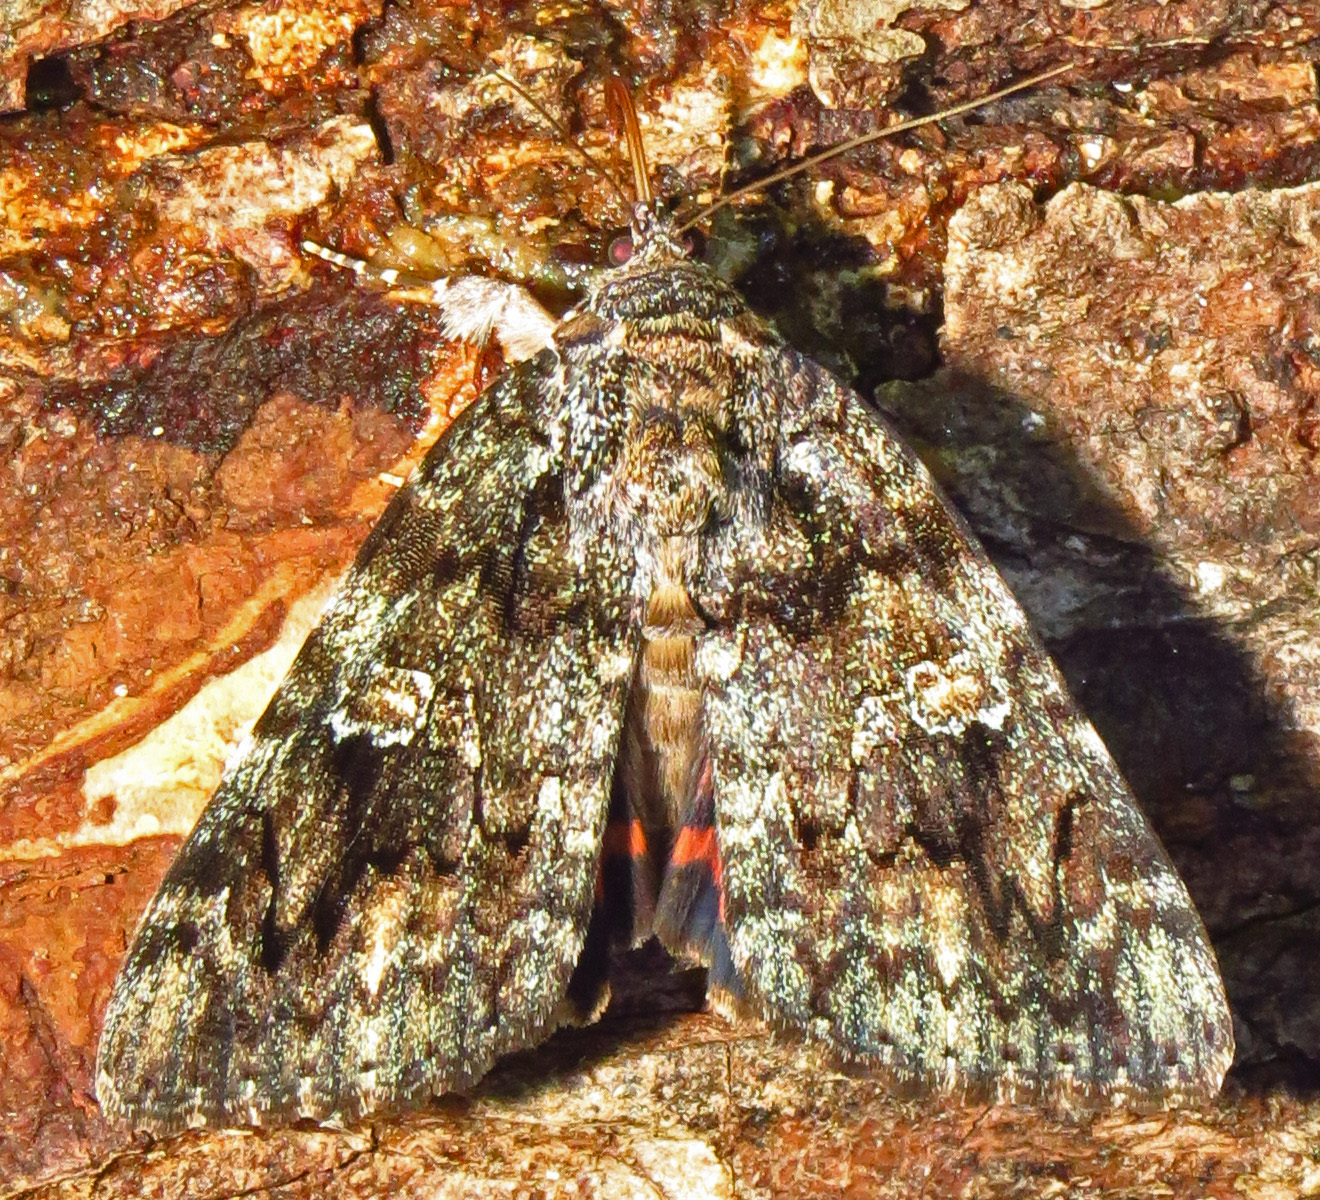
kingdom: Animalia
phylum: Arthropoda
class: Insecta
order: Lepidoptera
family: Erebidae
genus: Catocala
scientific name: Catocala ilia
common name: Ilia underwing
